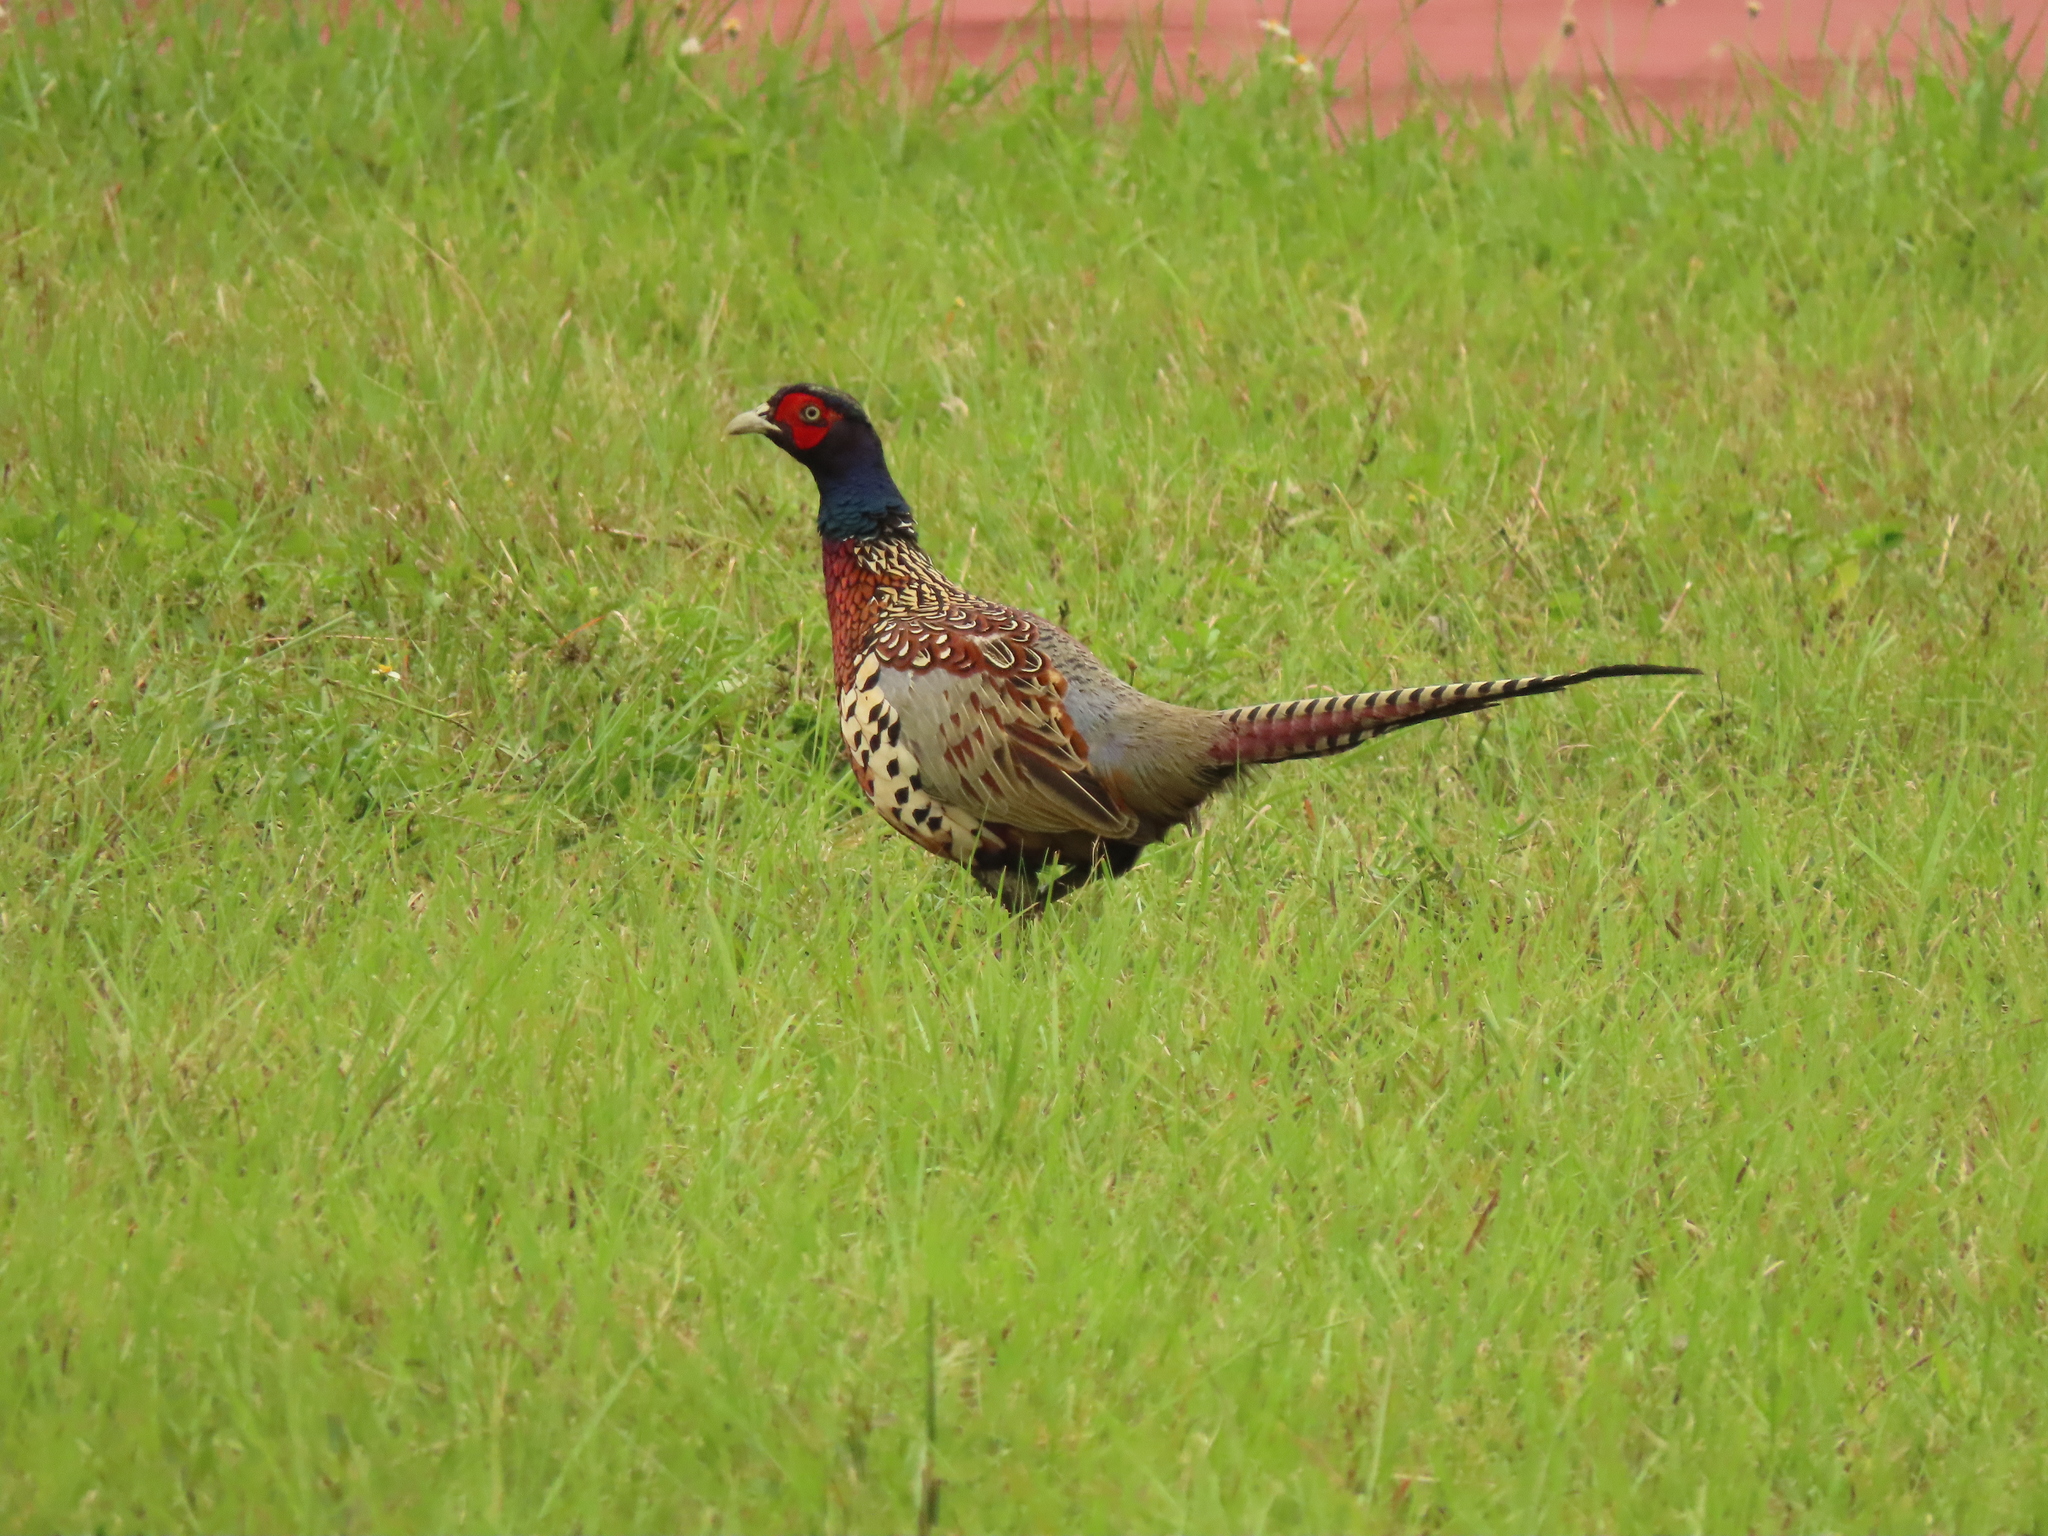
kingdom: Animalia
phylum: Chordata
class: Aves
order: Galliformes
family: Phasianidae
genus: Phasianus
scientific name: Phasianus colchicus
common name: Common pheasant
